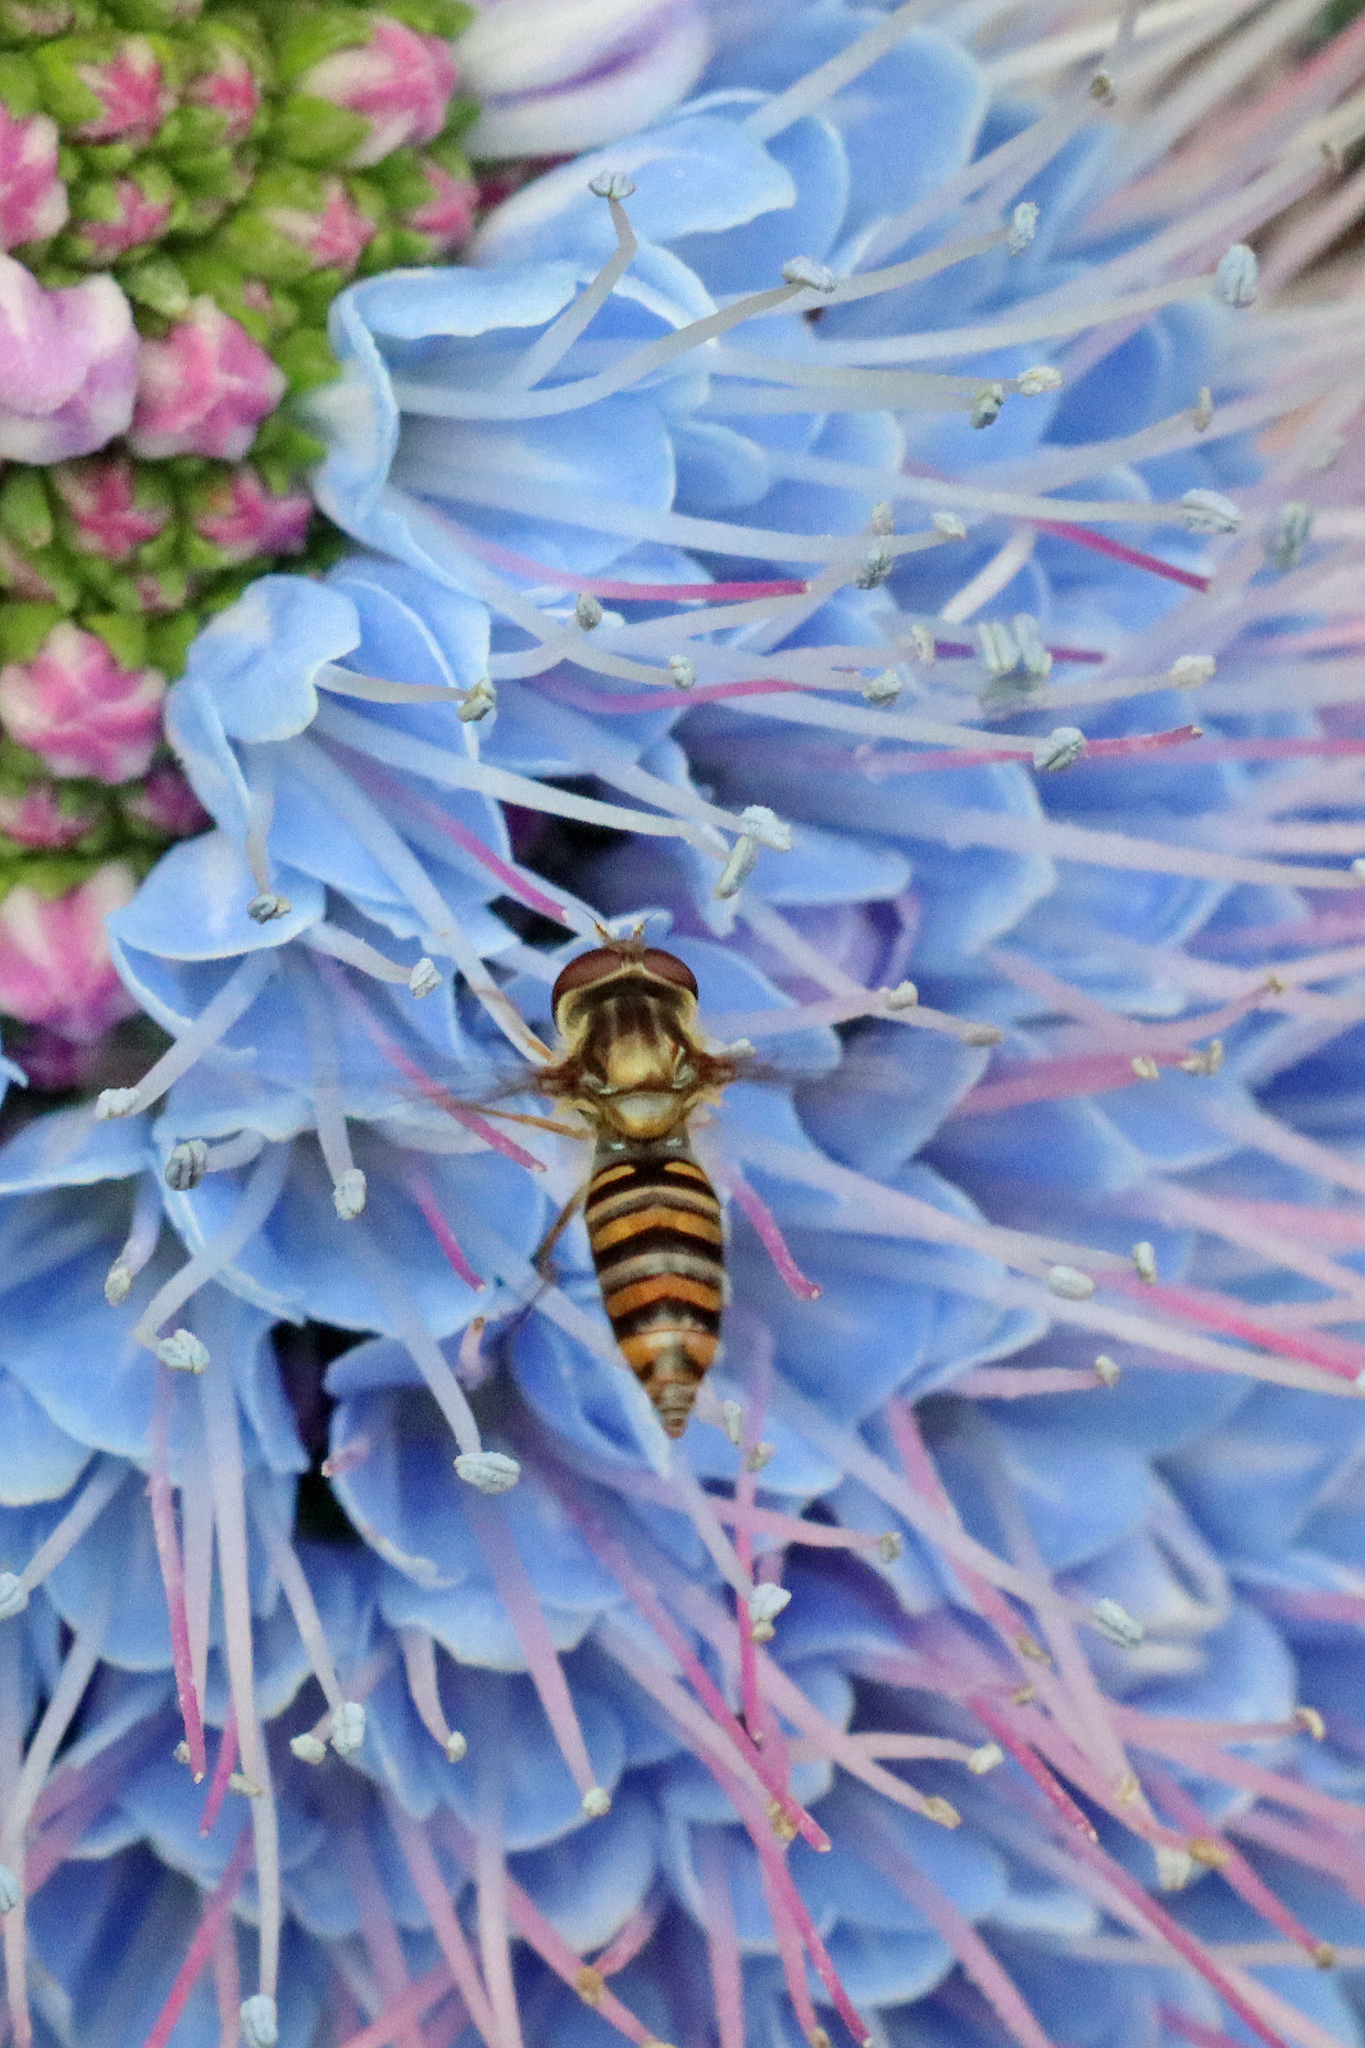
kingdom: Animalia
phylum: Arthropoda
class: Insecta
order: Diptera
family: Syrphidae
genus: Episyrphus
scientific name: Episyrphus balteatus
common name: Marmalade hoverfly
